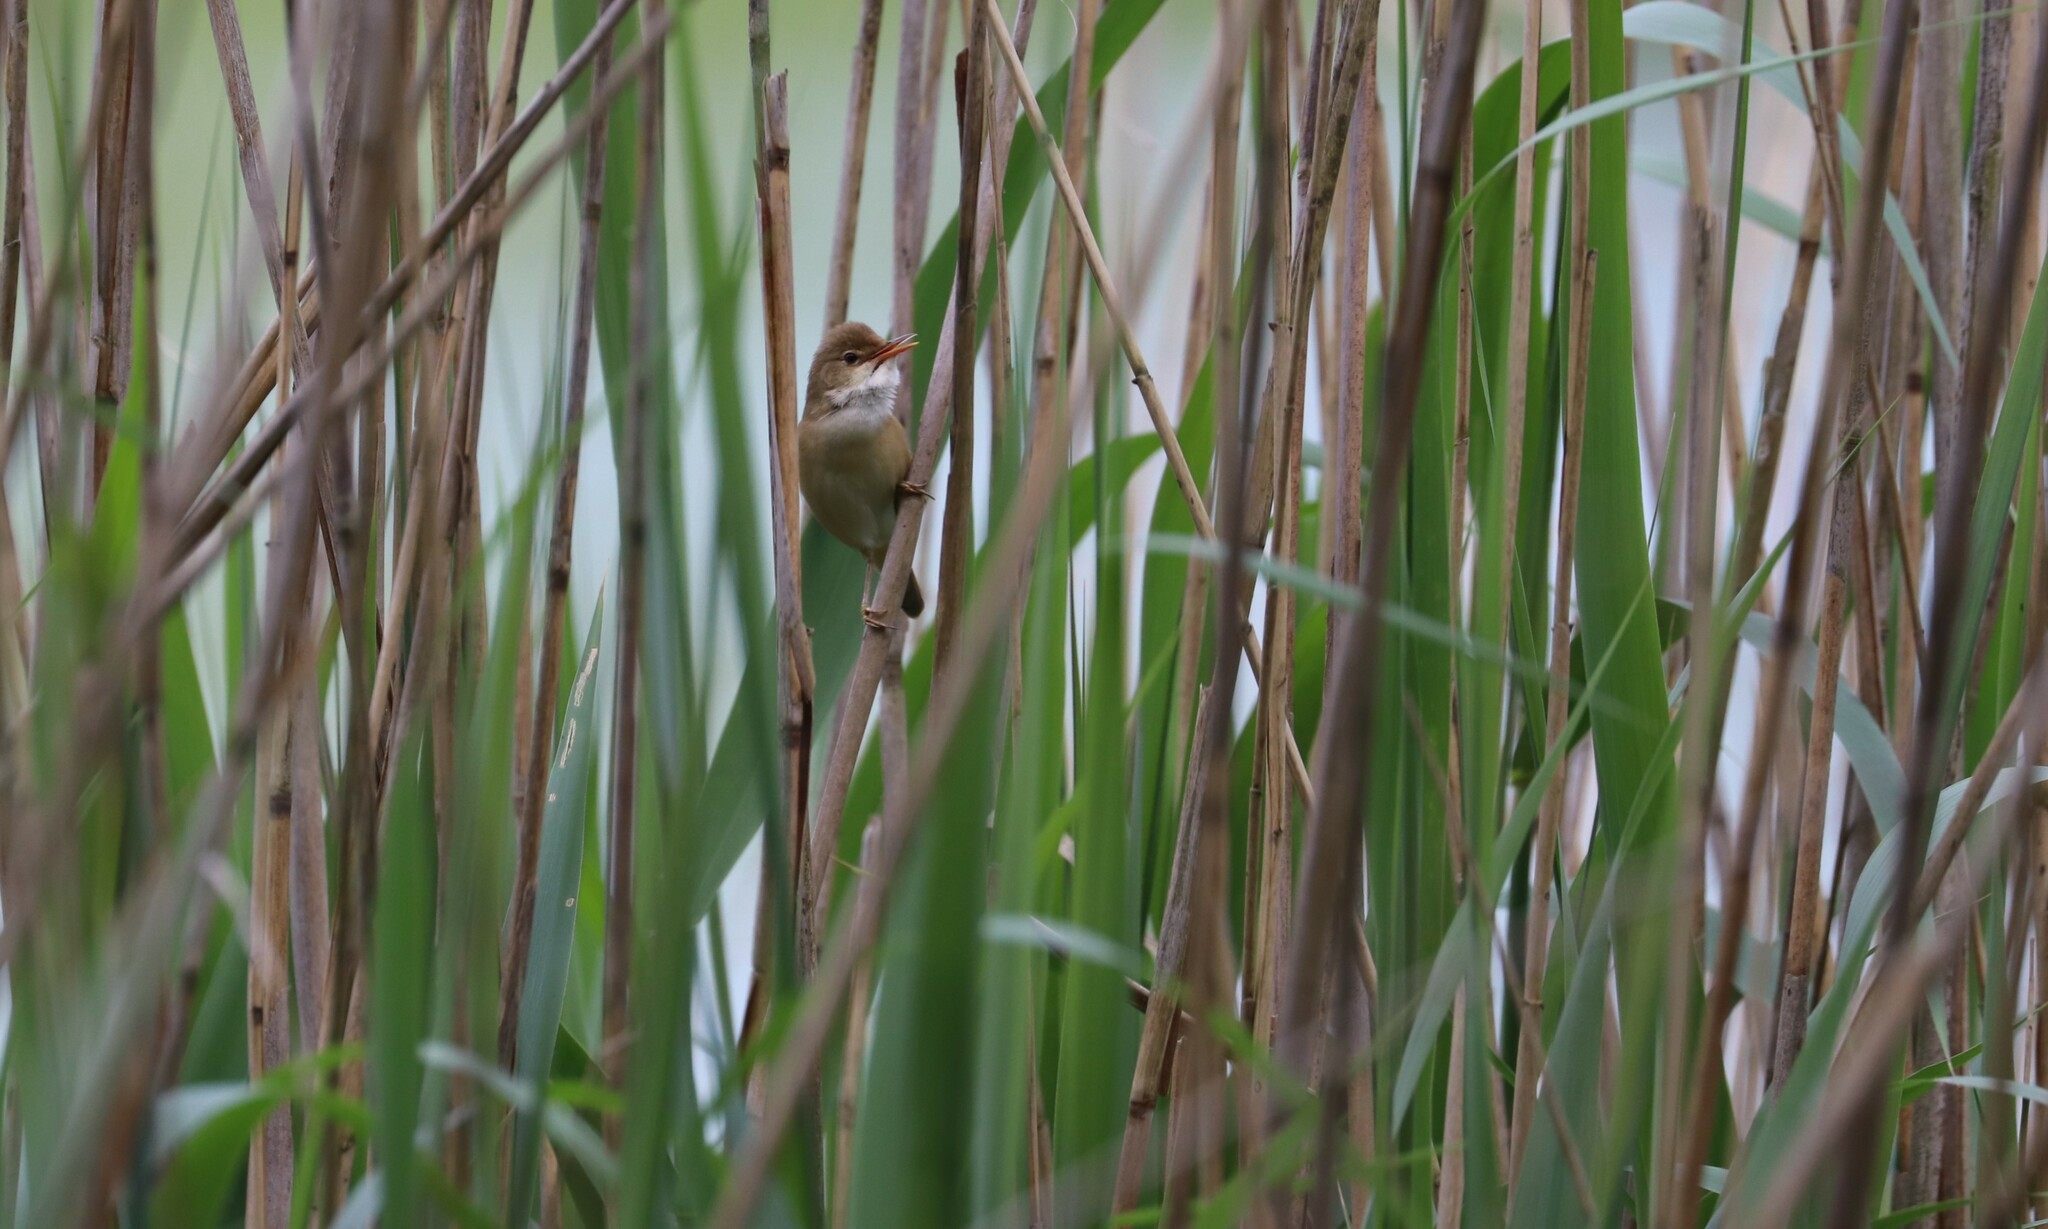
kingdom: Animalia
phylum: Chordata
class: Aves
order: Passeriformes
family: Acrocephalidae
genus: Acrocephalus
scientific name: Acrocephalus scirpaceus
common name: Eurasian reed warbler
